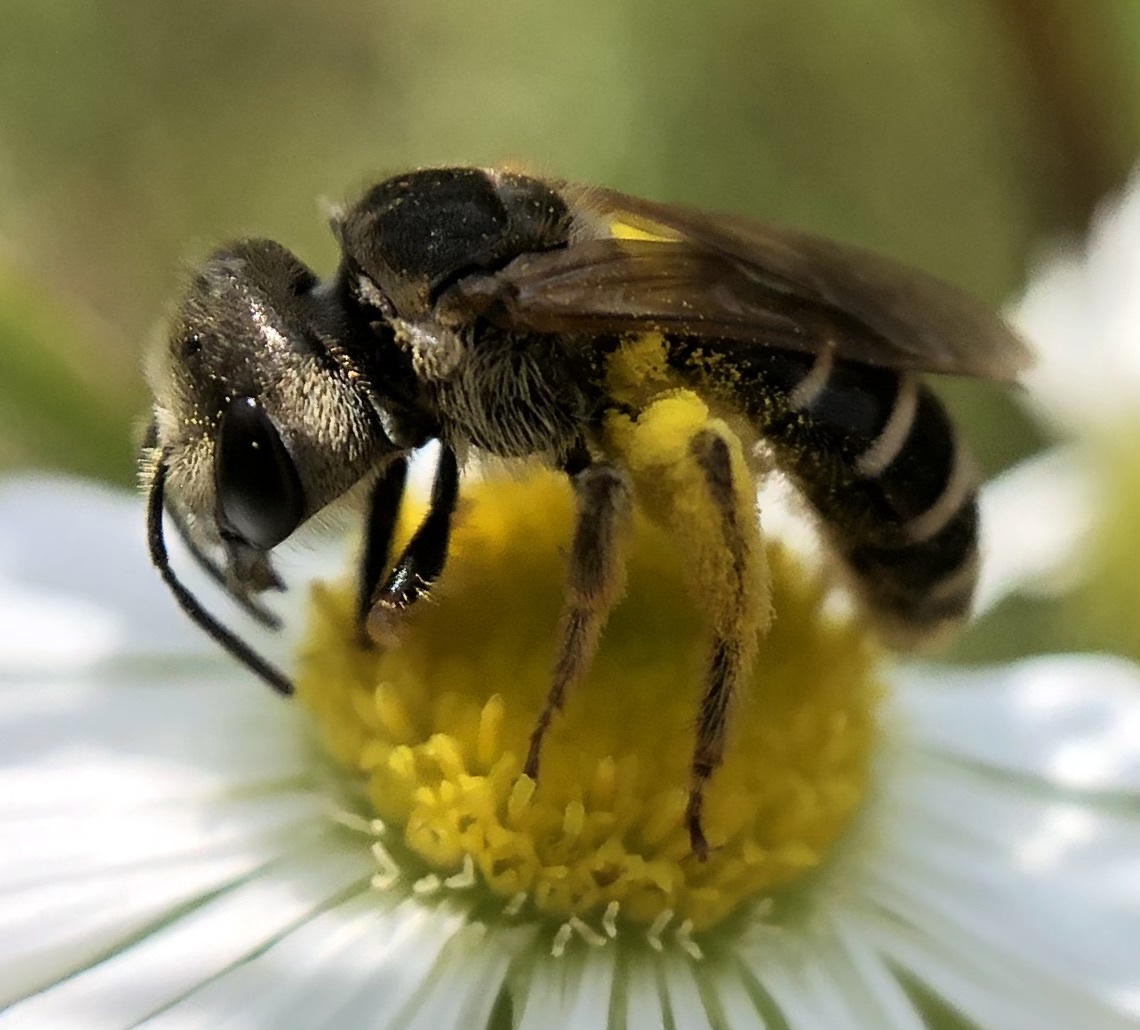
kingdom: Animalia
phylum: Arthropoda
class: Insecta
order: Hymenoptera
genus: Odontalictus
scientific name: Odontalictus
